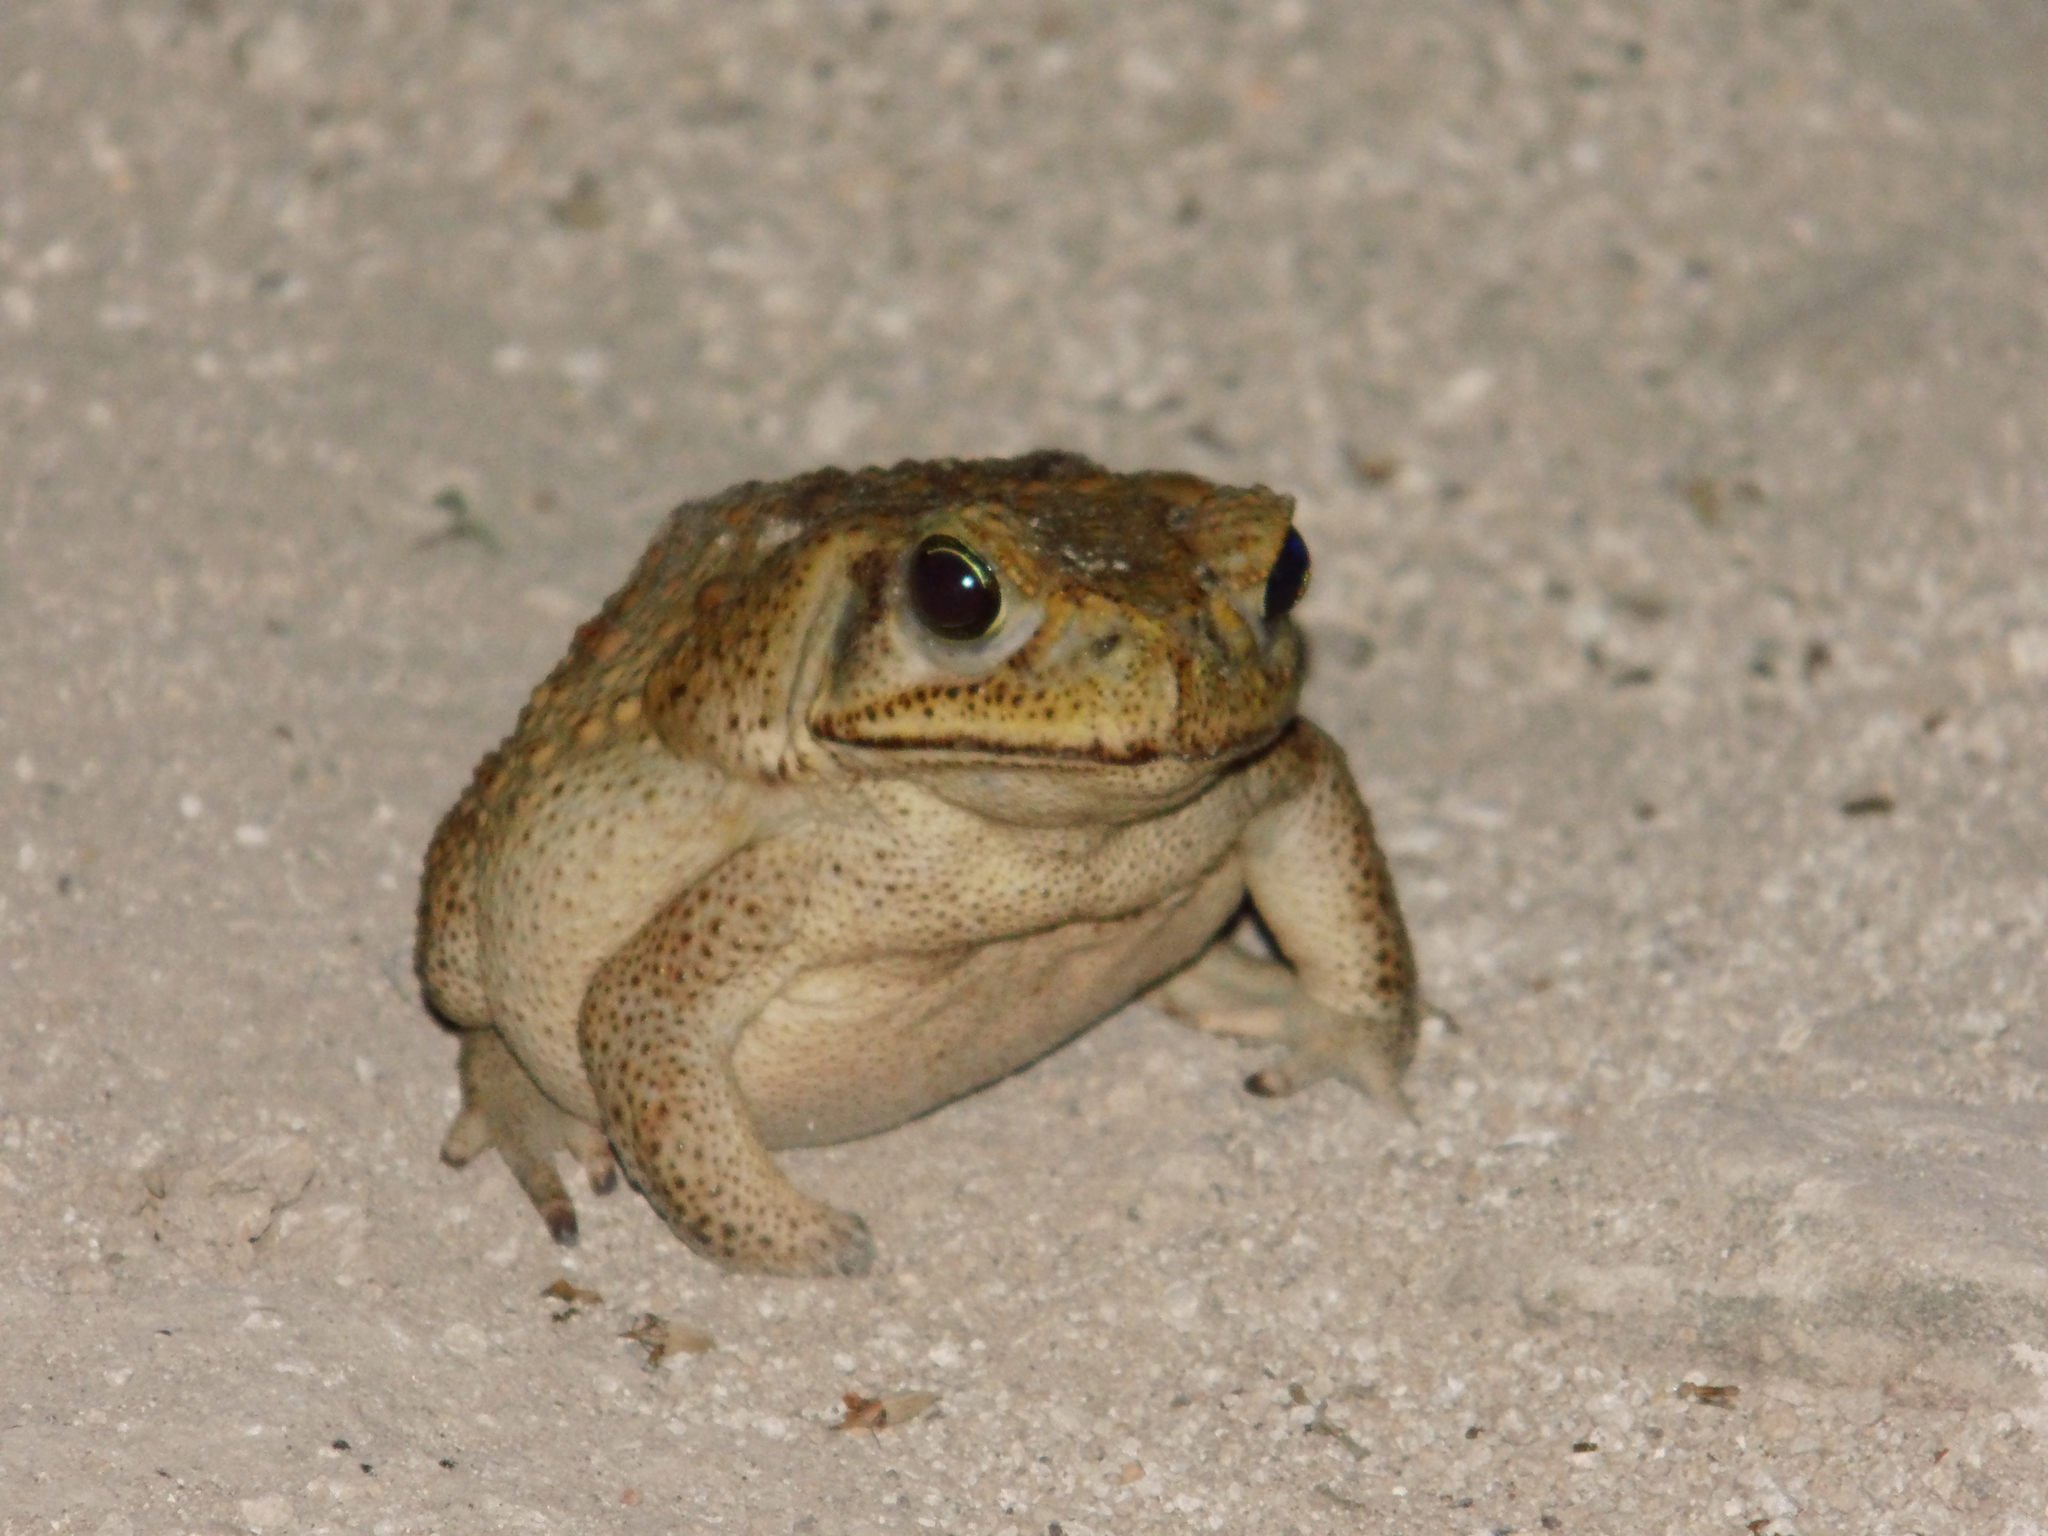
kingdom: Animalia
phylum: Chordata
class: Amphibia
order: Anura
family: Bufonidae
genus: Rhinella
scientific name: Rhinella horribilis
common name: Mesoamerican cane toad
